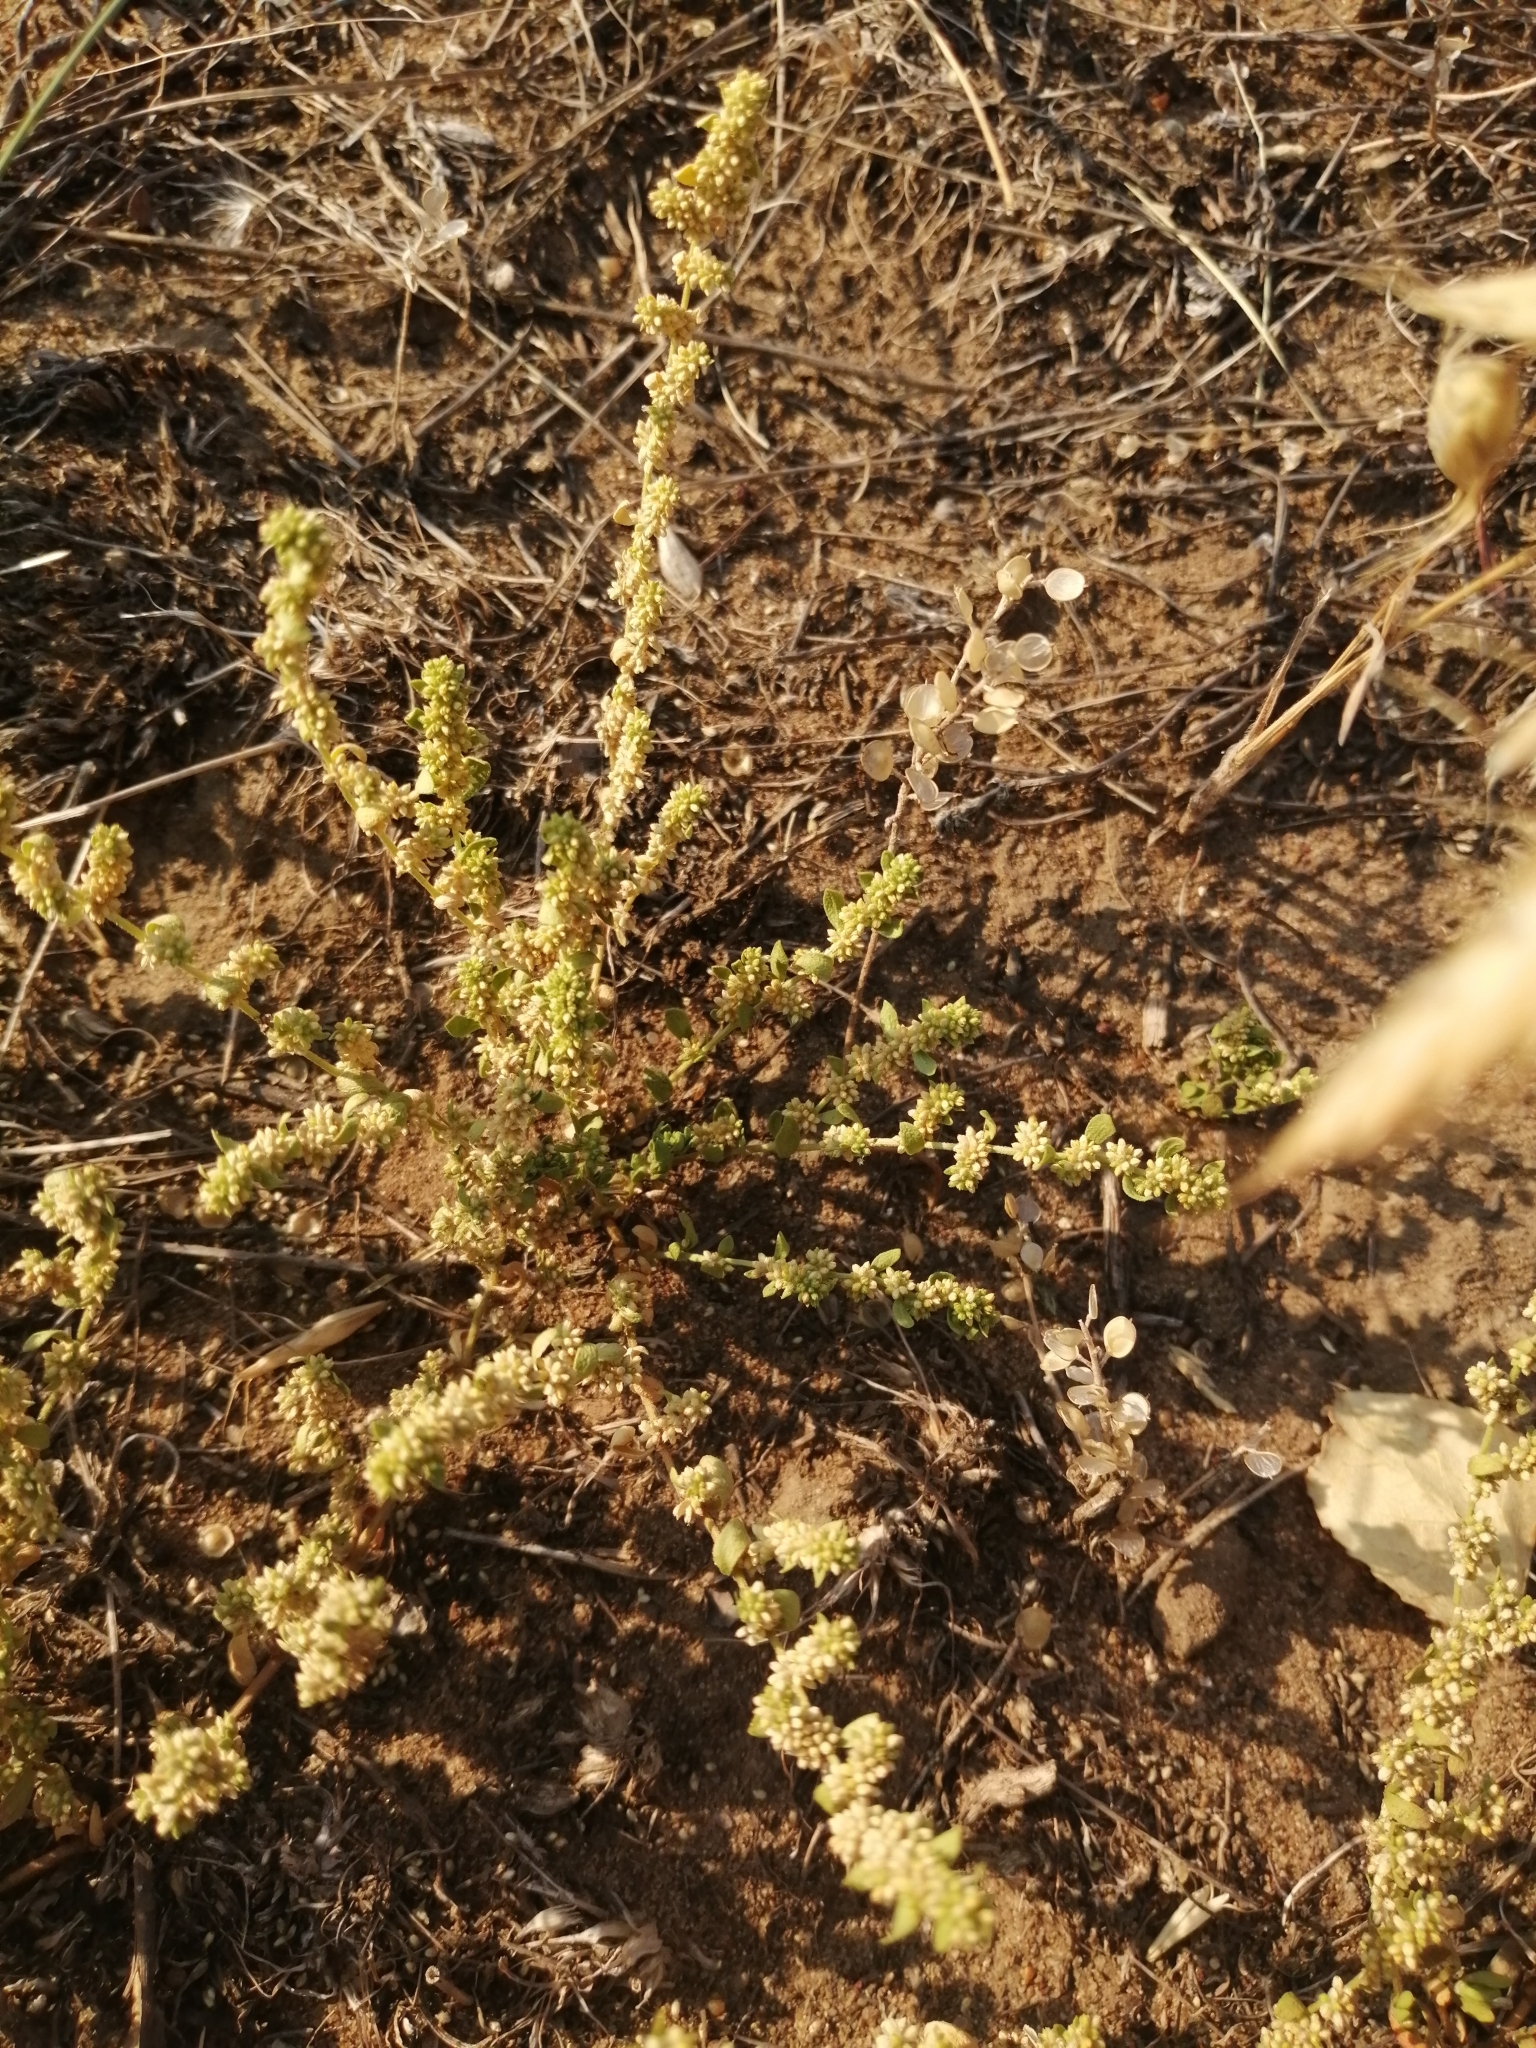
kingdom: Plantae
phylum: Tracheophyta
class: Magnoliopsida
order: Caryophyllales
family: Caryophyllaceae
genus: Herniaria
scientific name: Herniaria polygama
